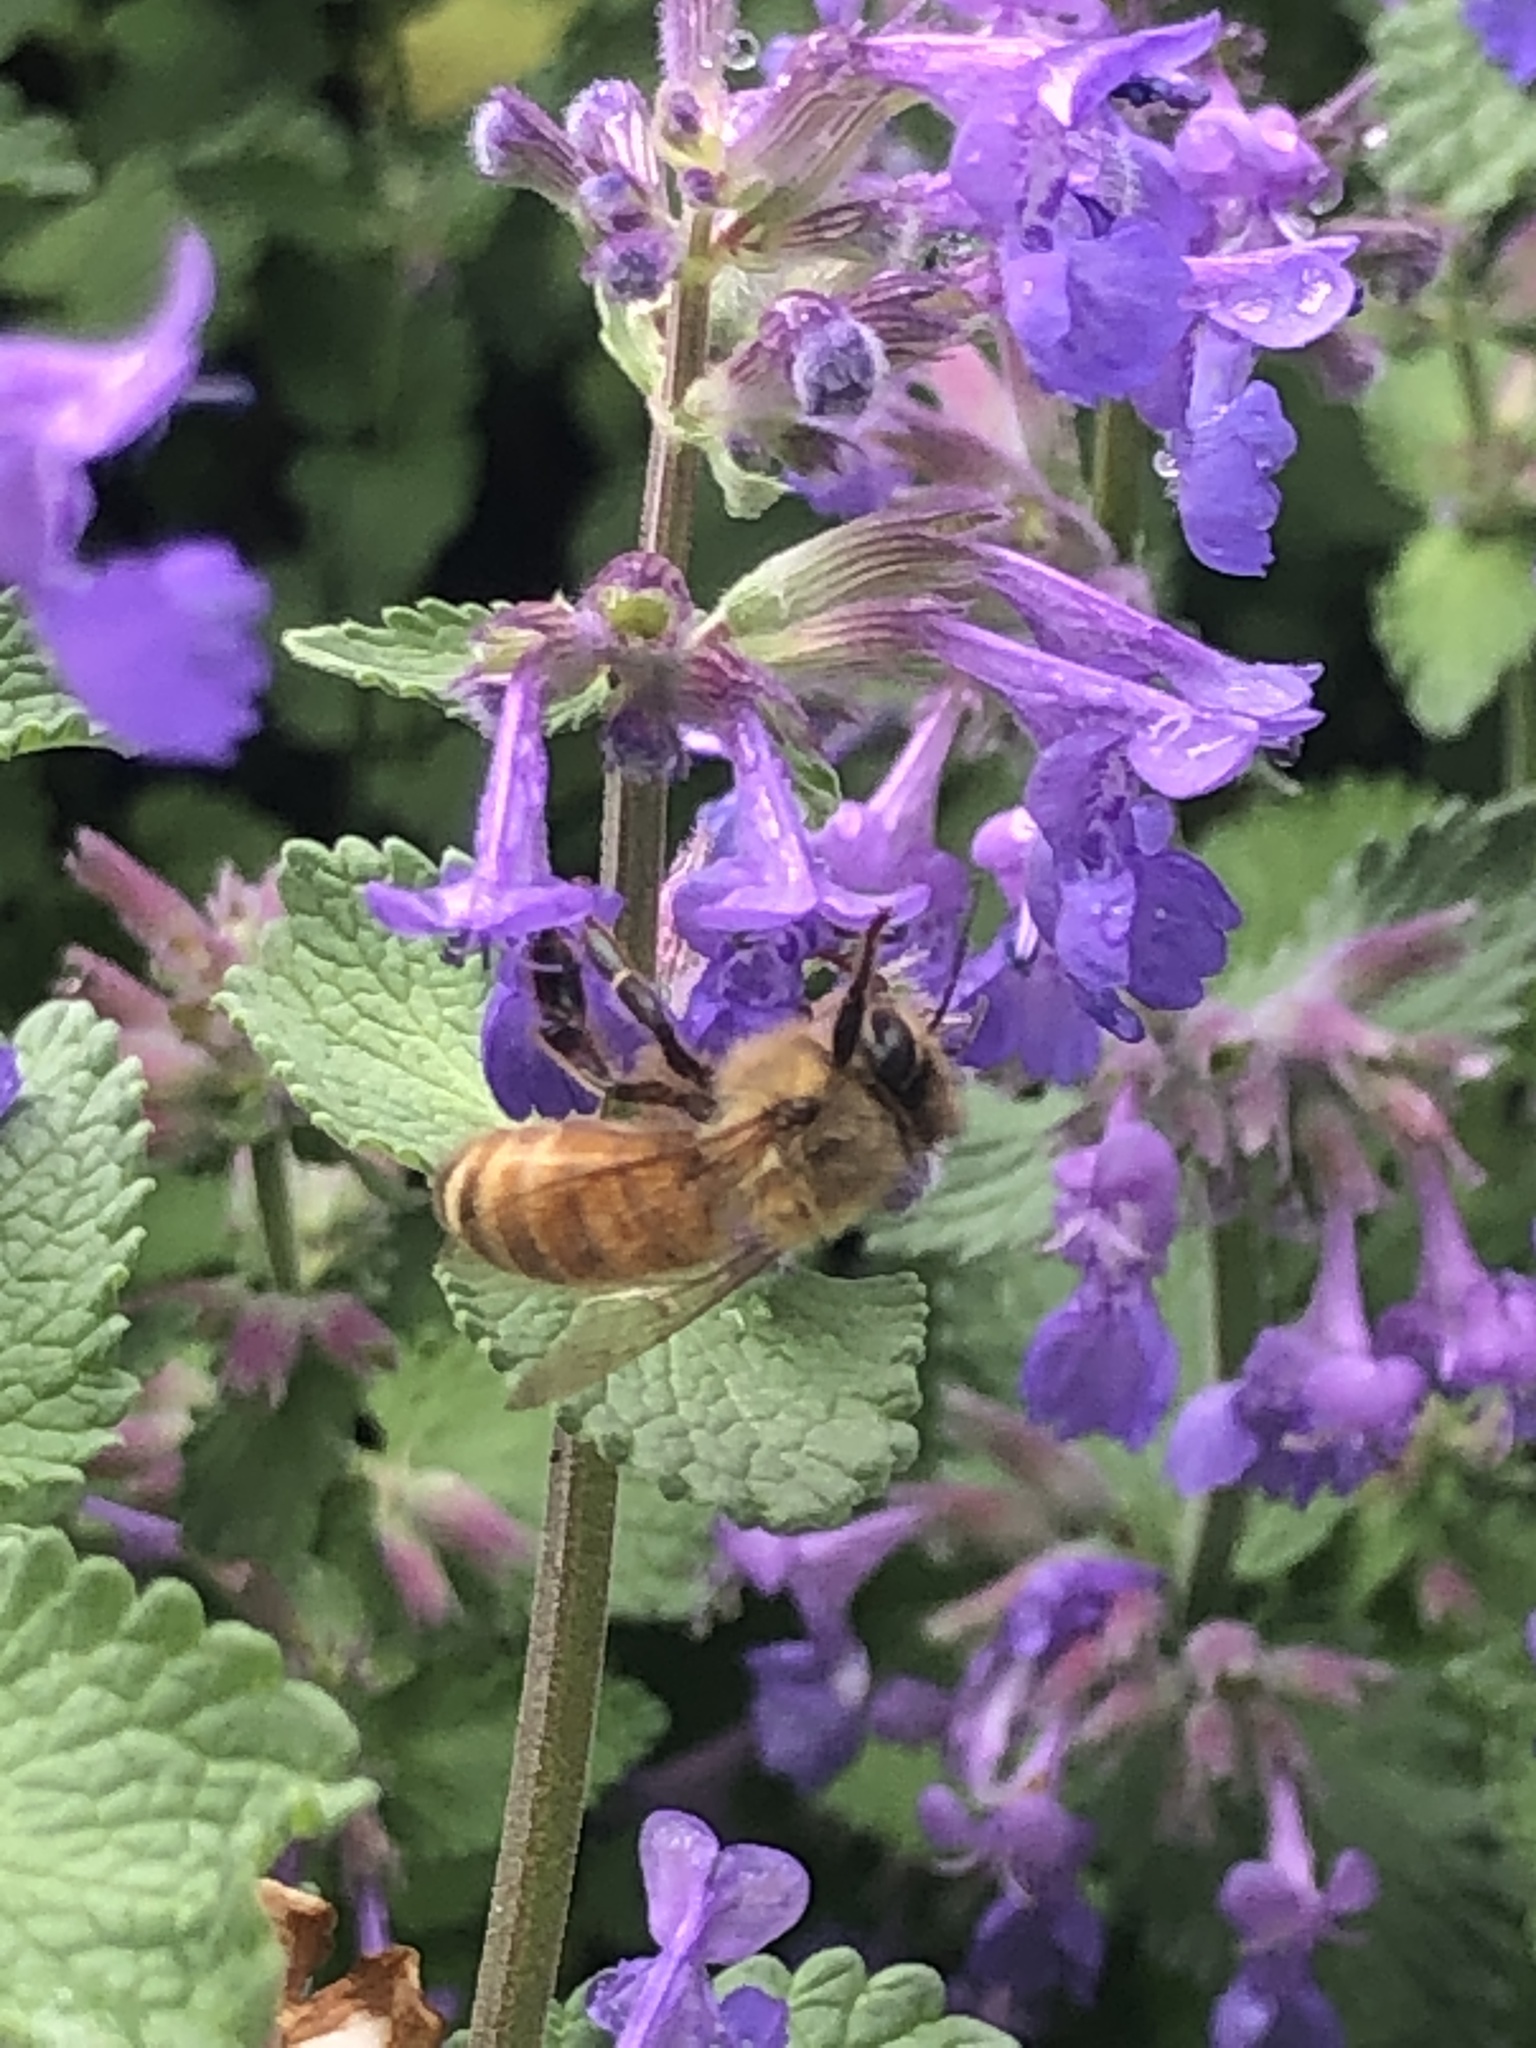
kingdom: Animalia
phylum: Arthropoda
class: Insecta
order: Hymenoptera
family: Apidae
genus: Apis
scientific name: Apis mellifera
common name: Honey bee
